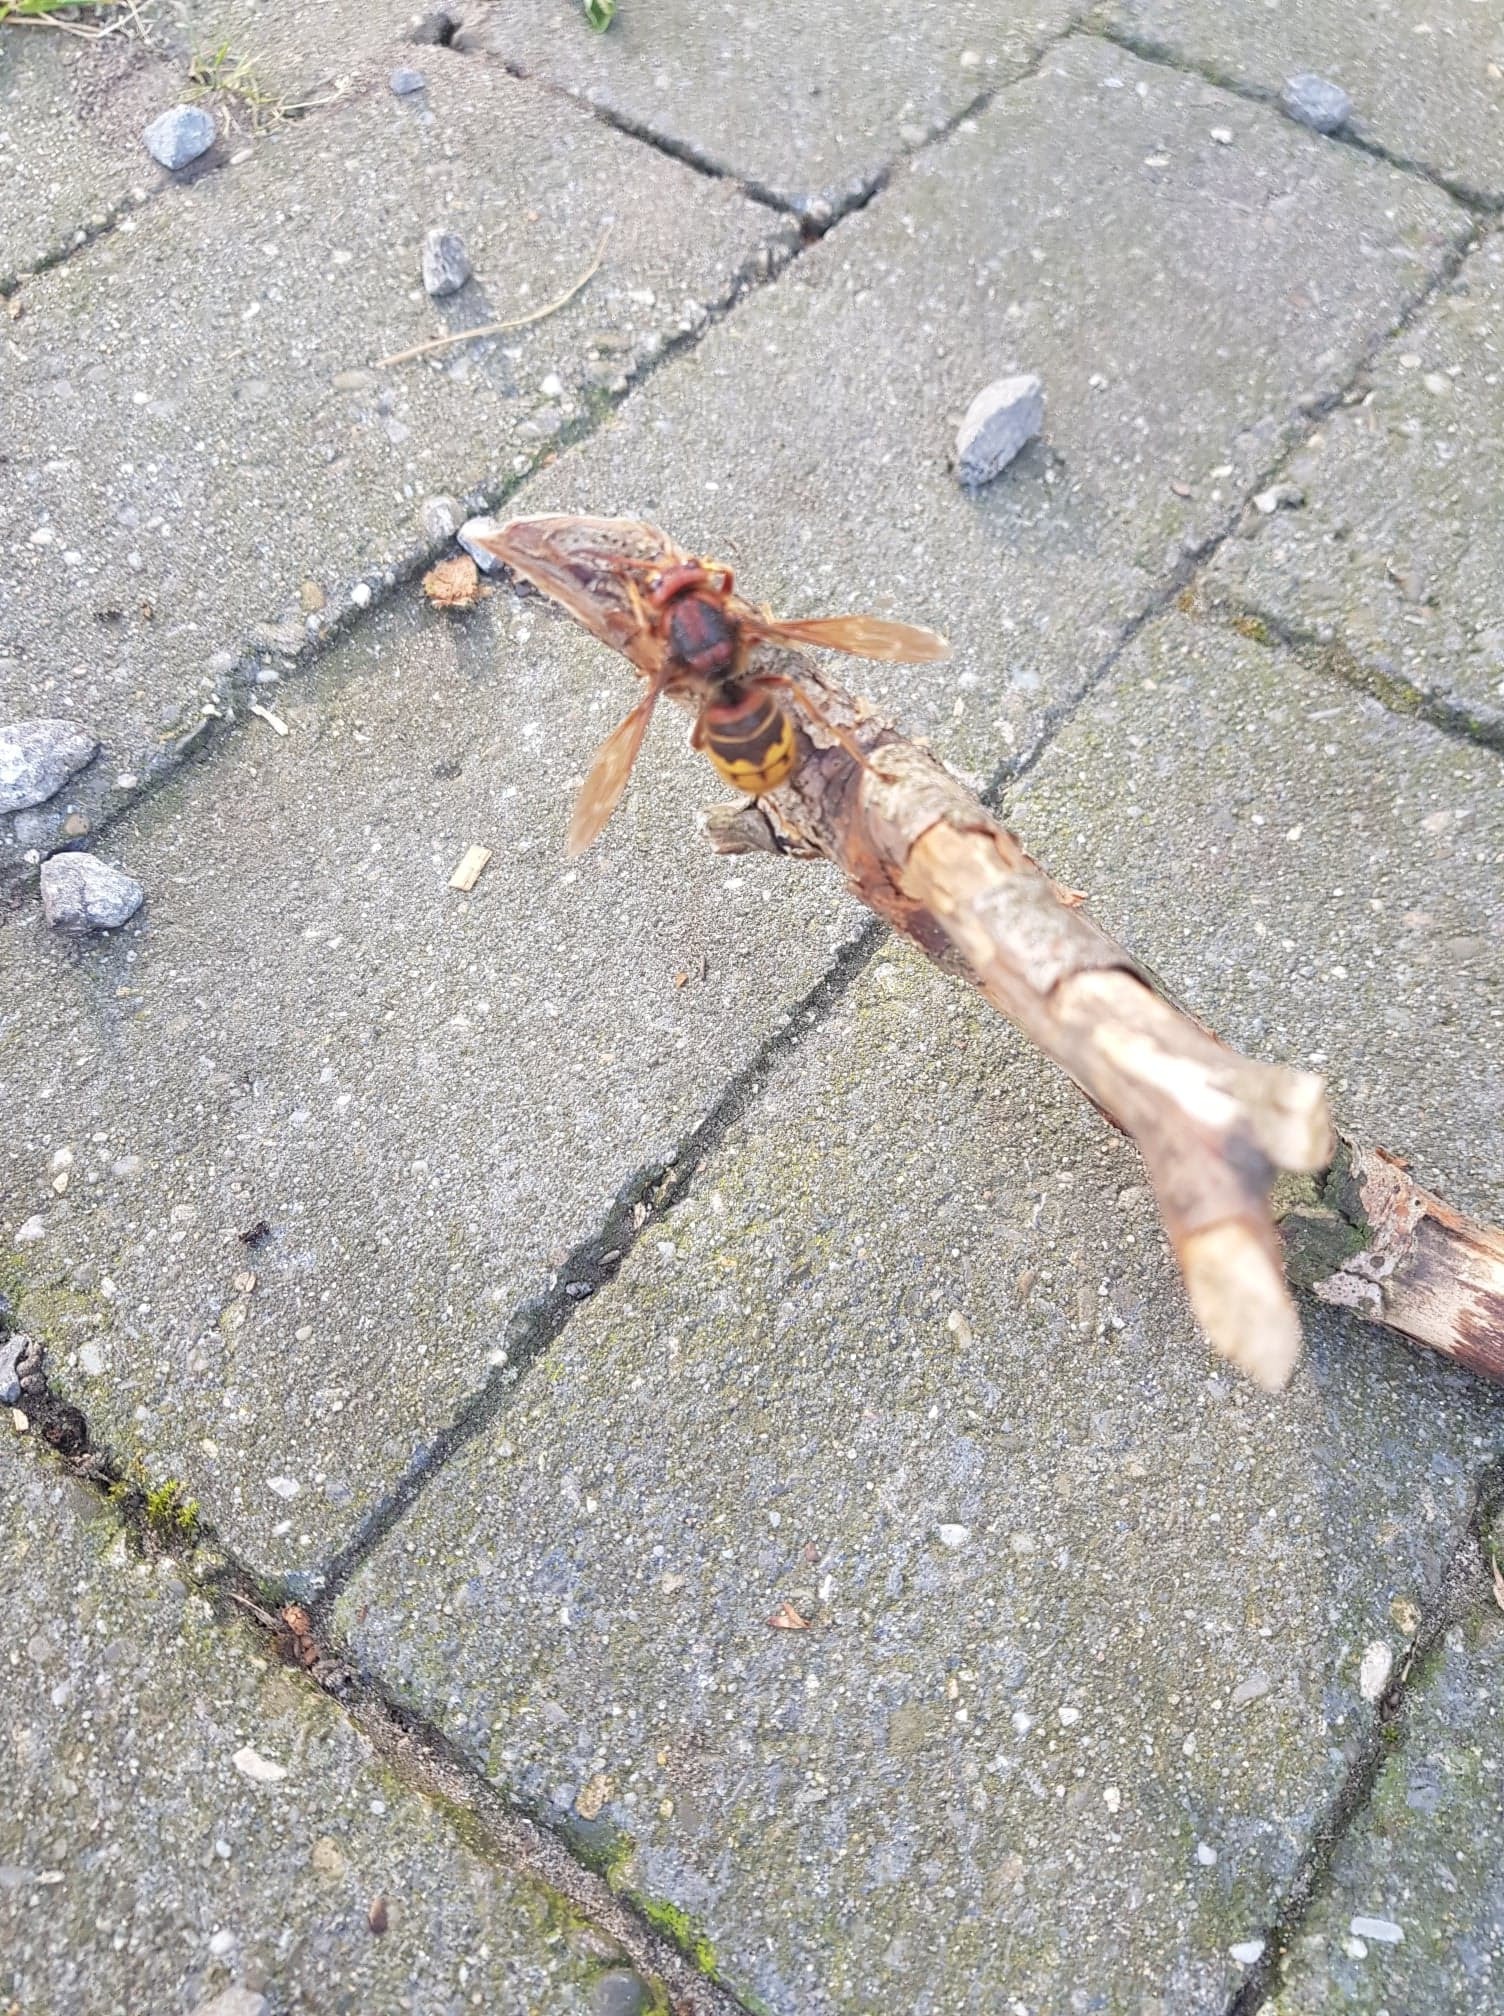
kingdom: Animalia
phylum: Arthropoda
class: Insecta
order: Hymenoptera
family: Vespidae
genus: Vespa
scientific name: Vespa crabro
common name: Hornet
